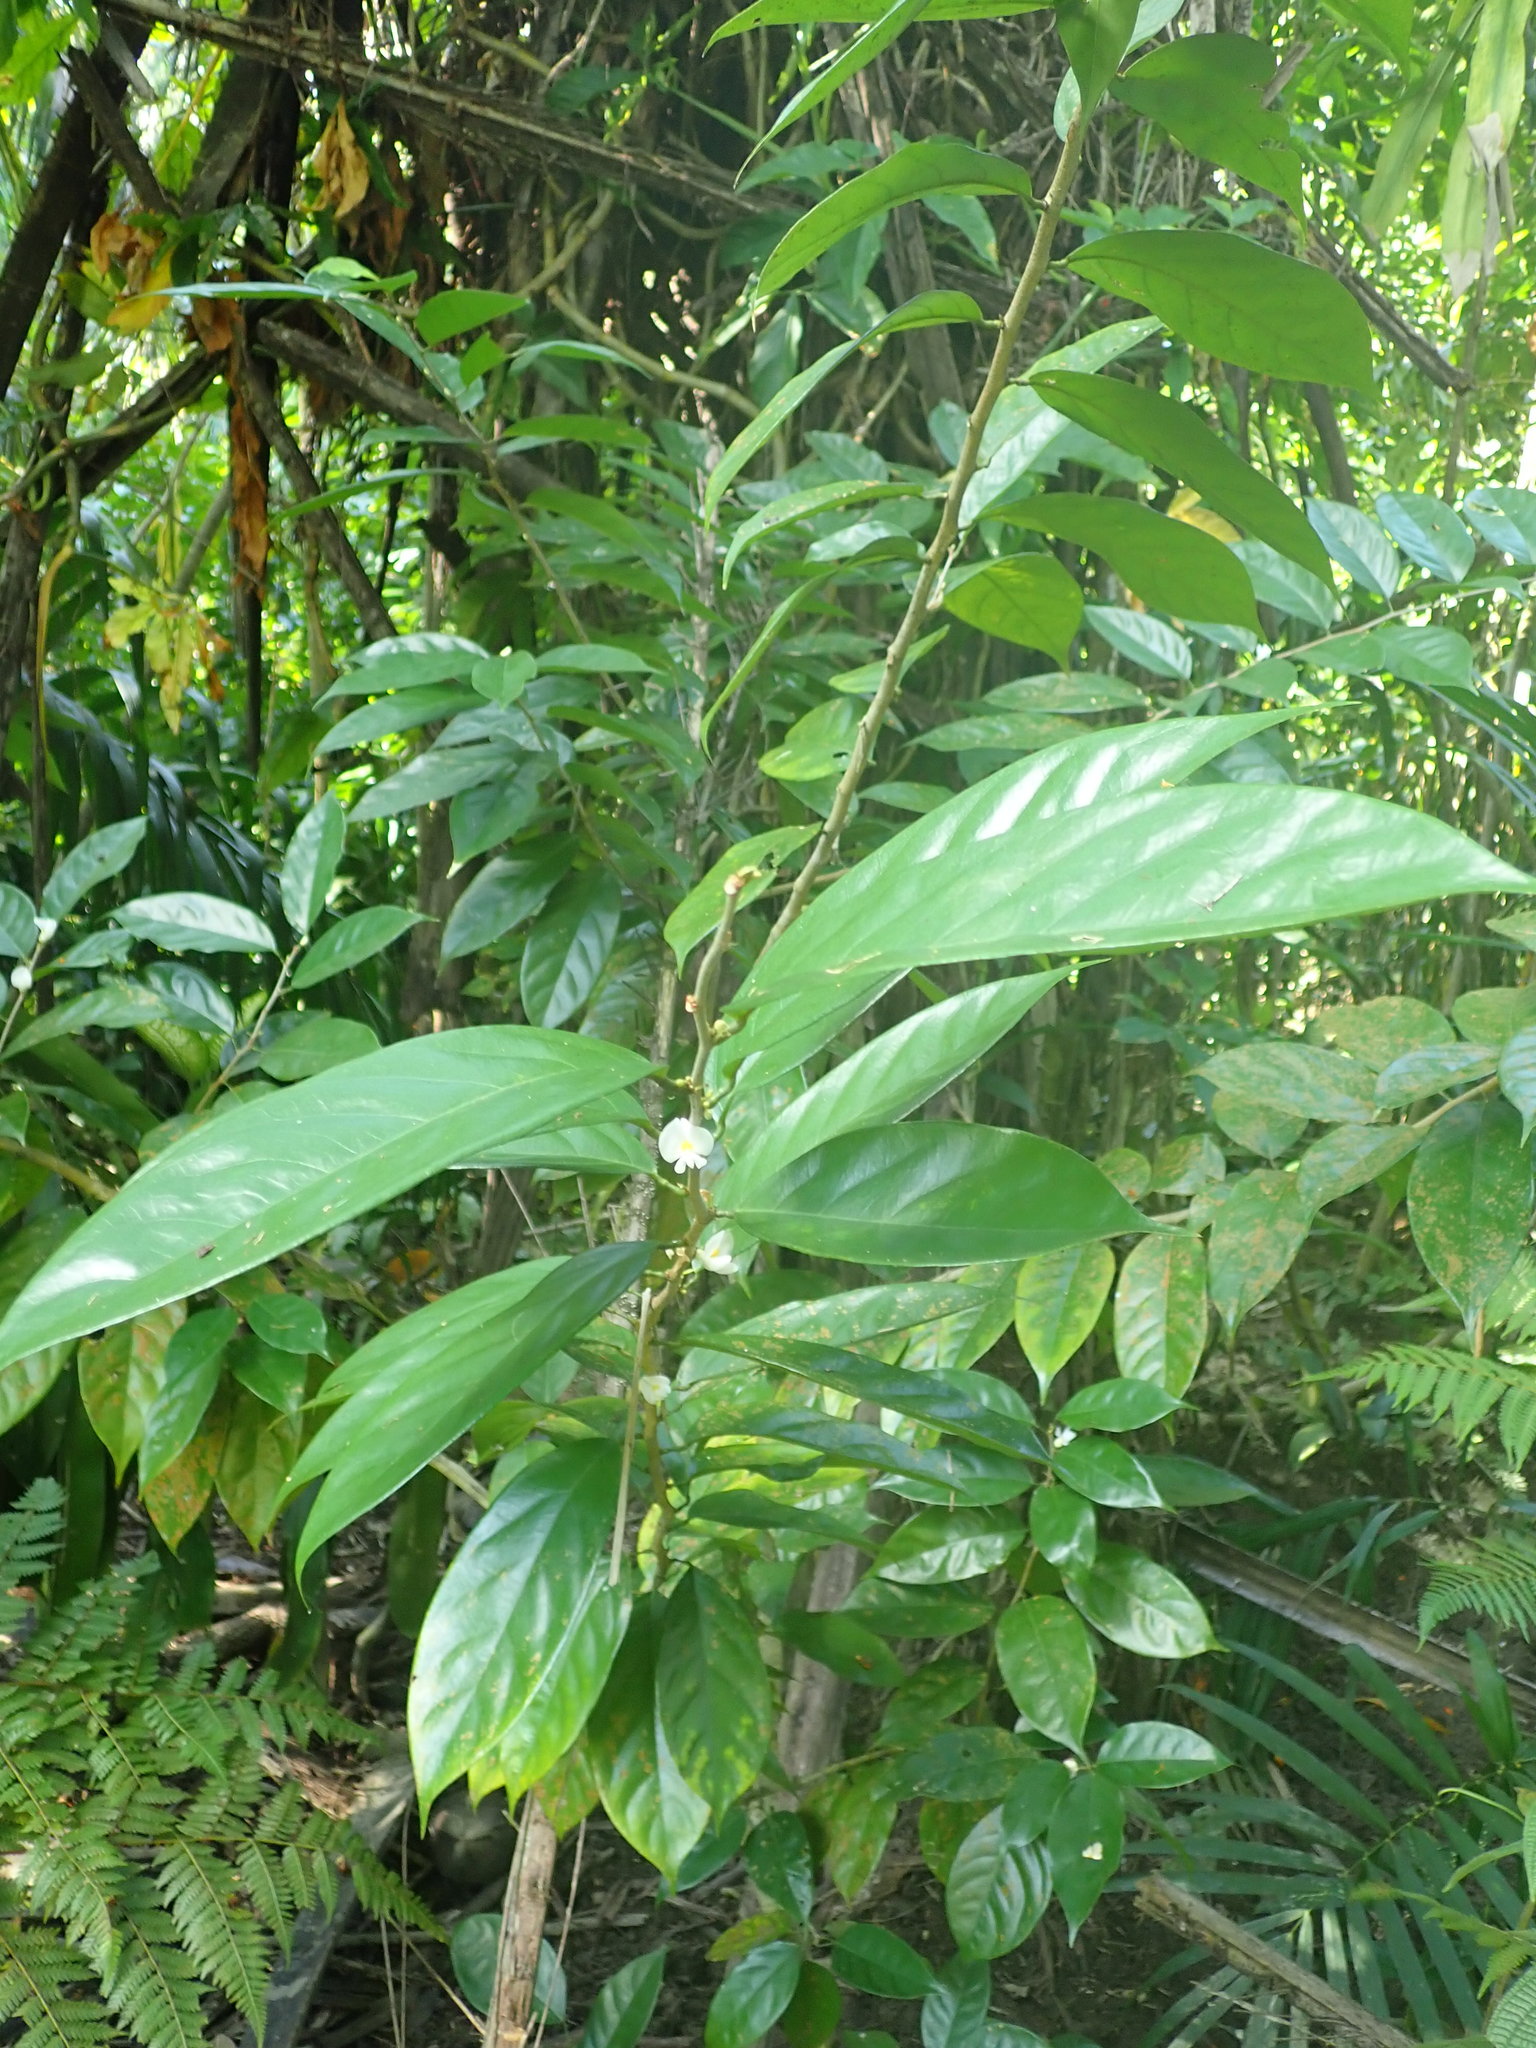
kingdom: Plantae
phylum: Tracheophyta
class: Magnoliopsida
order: Fabales
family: Fabaceae
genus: Baphia
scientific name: Baphia nitida
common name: Camwood
